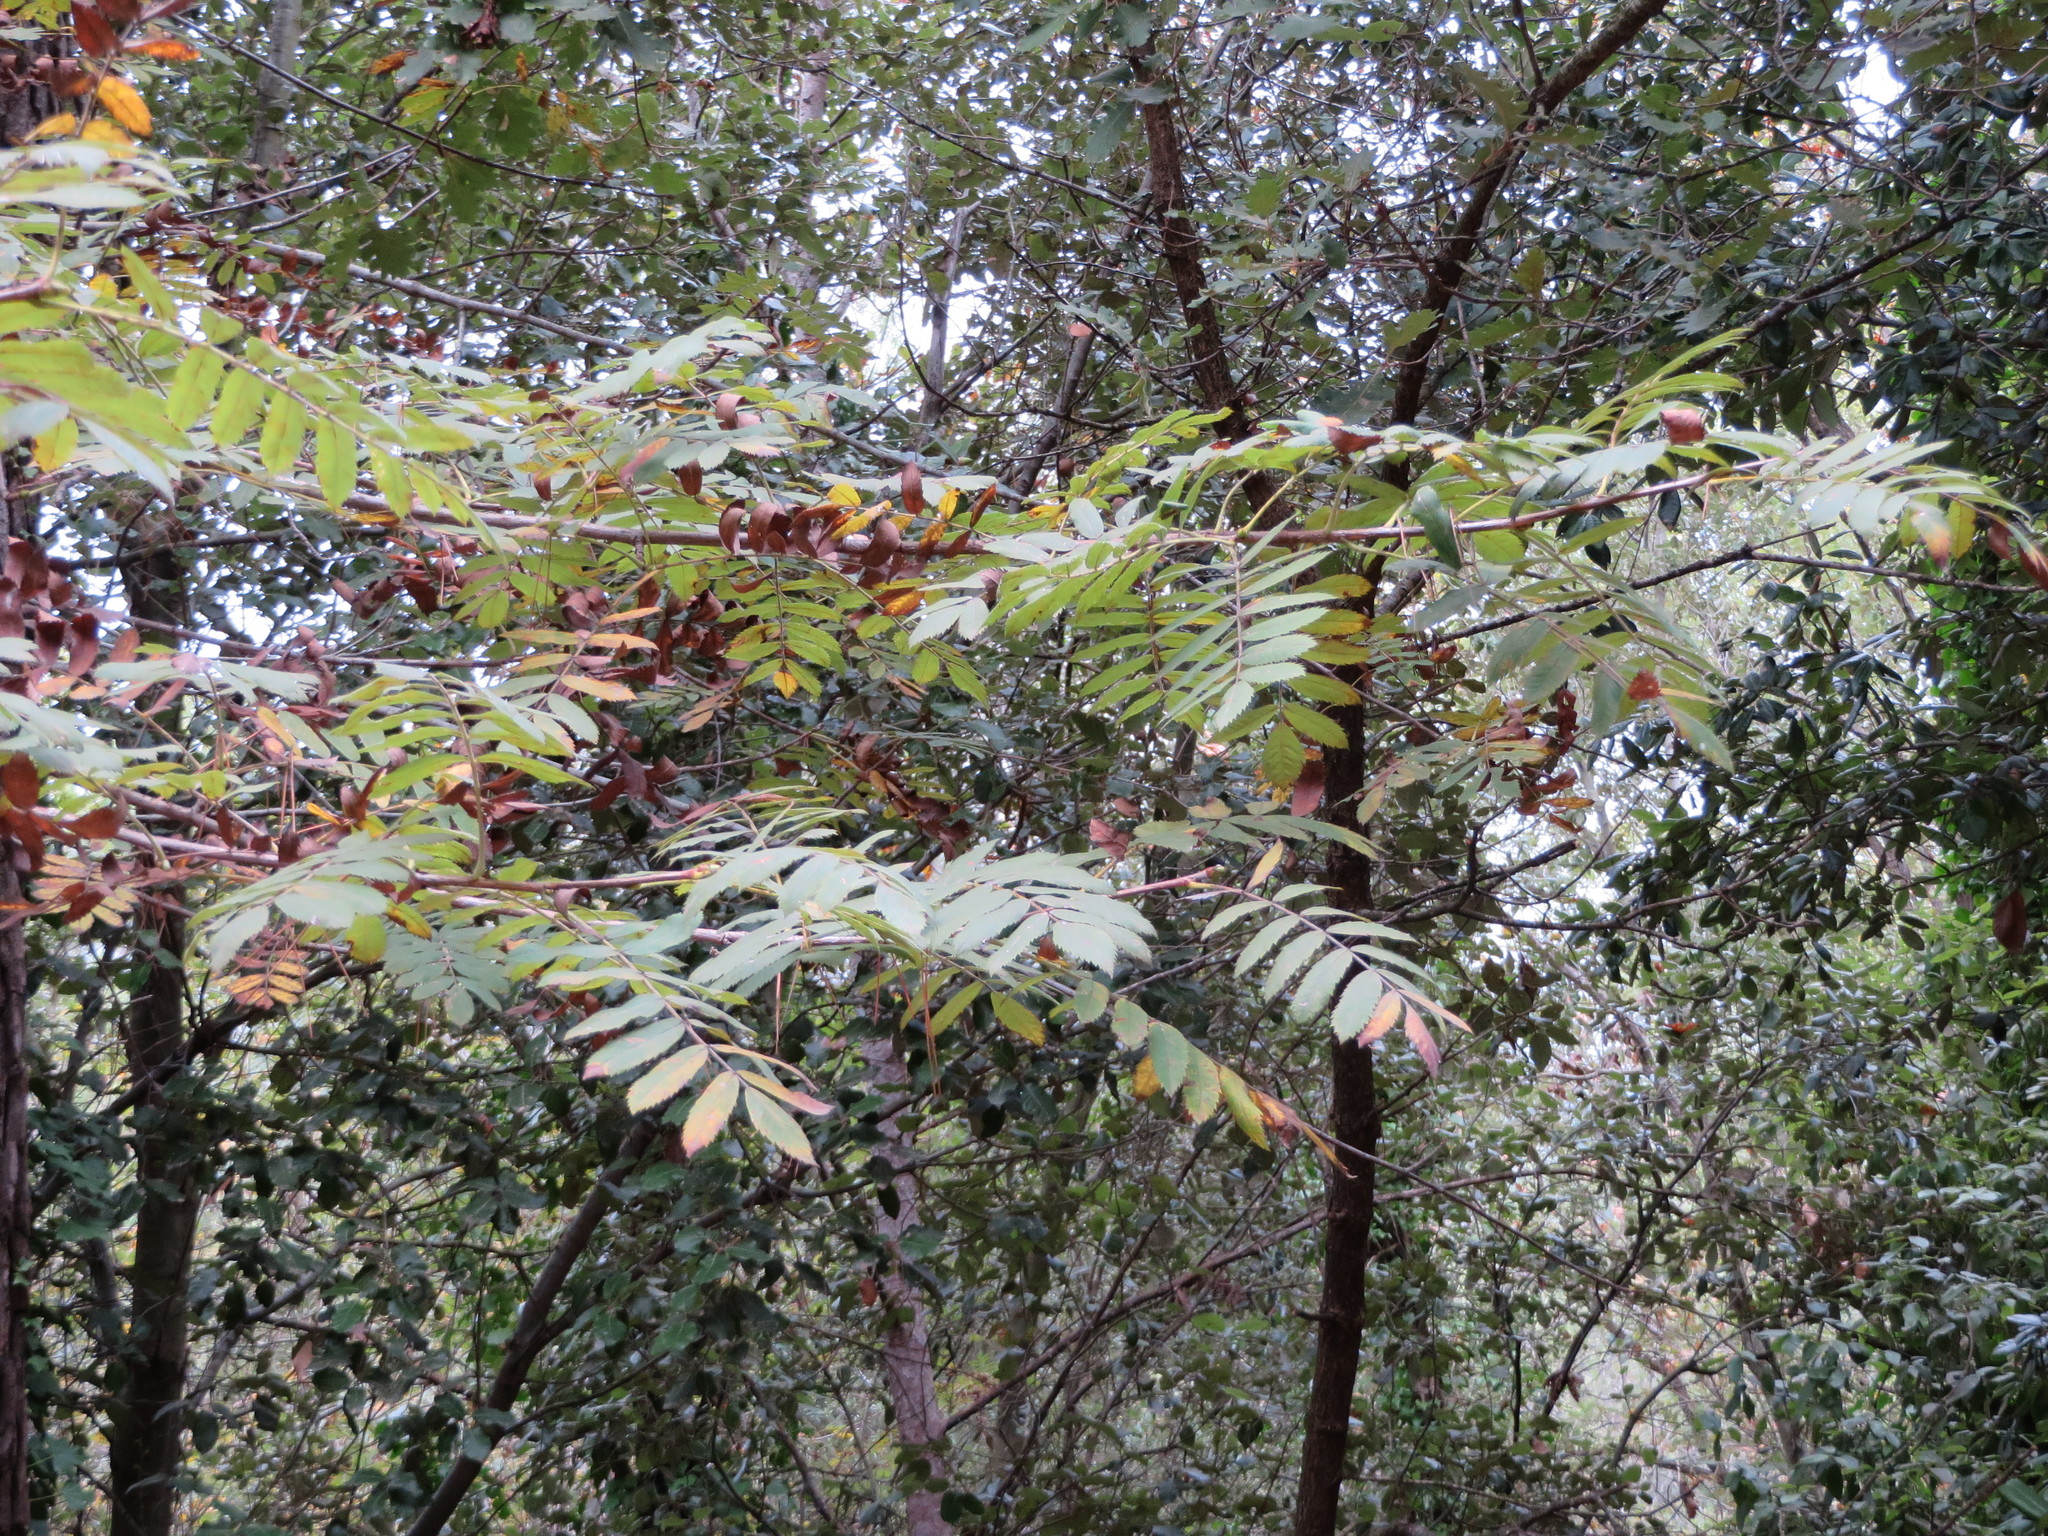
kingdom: Plantae
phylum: Tracheophyta
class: Magnoliopsida
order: Rosales
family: Rosaceae
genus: Cormus
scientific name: Cormus domestica
